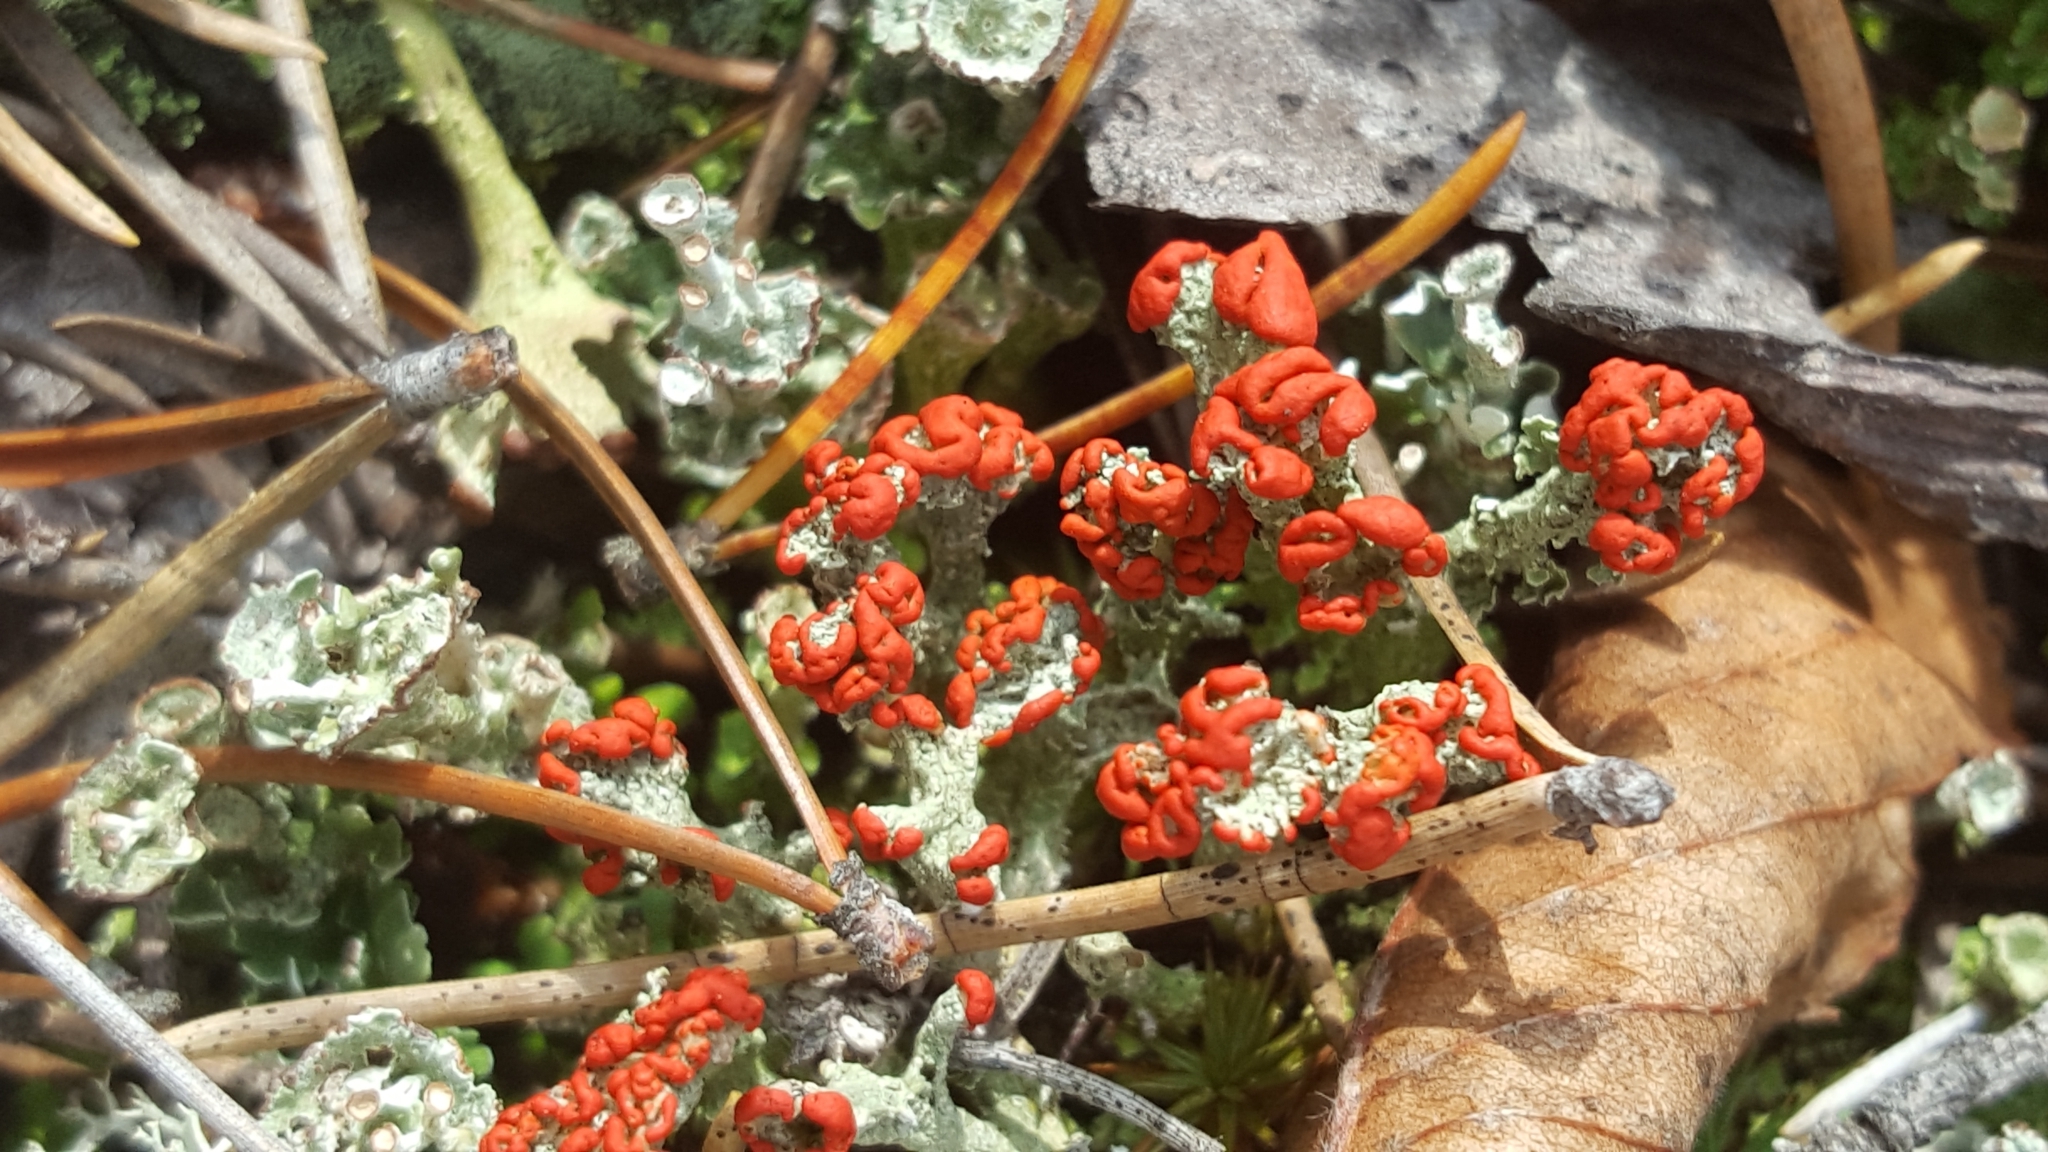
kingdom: Fungi
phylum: Ascomycota
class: Lecanoromycetes
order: Lecanorales
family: Cladoniaceae
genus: Cladonia
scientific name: Cladonia cristatella
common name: British soldier lichen
